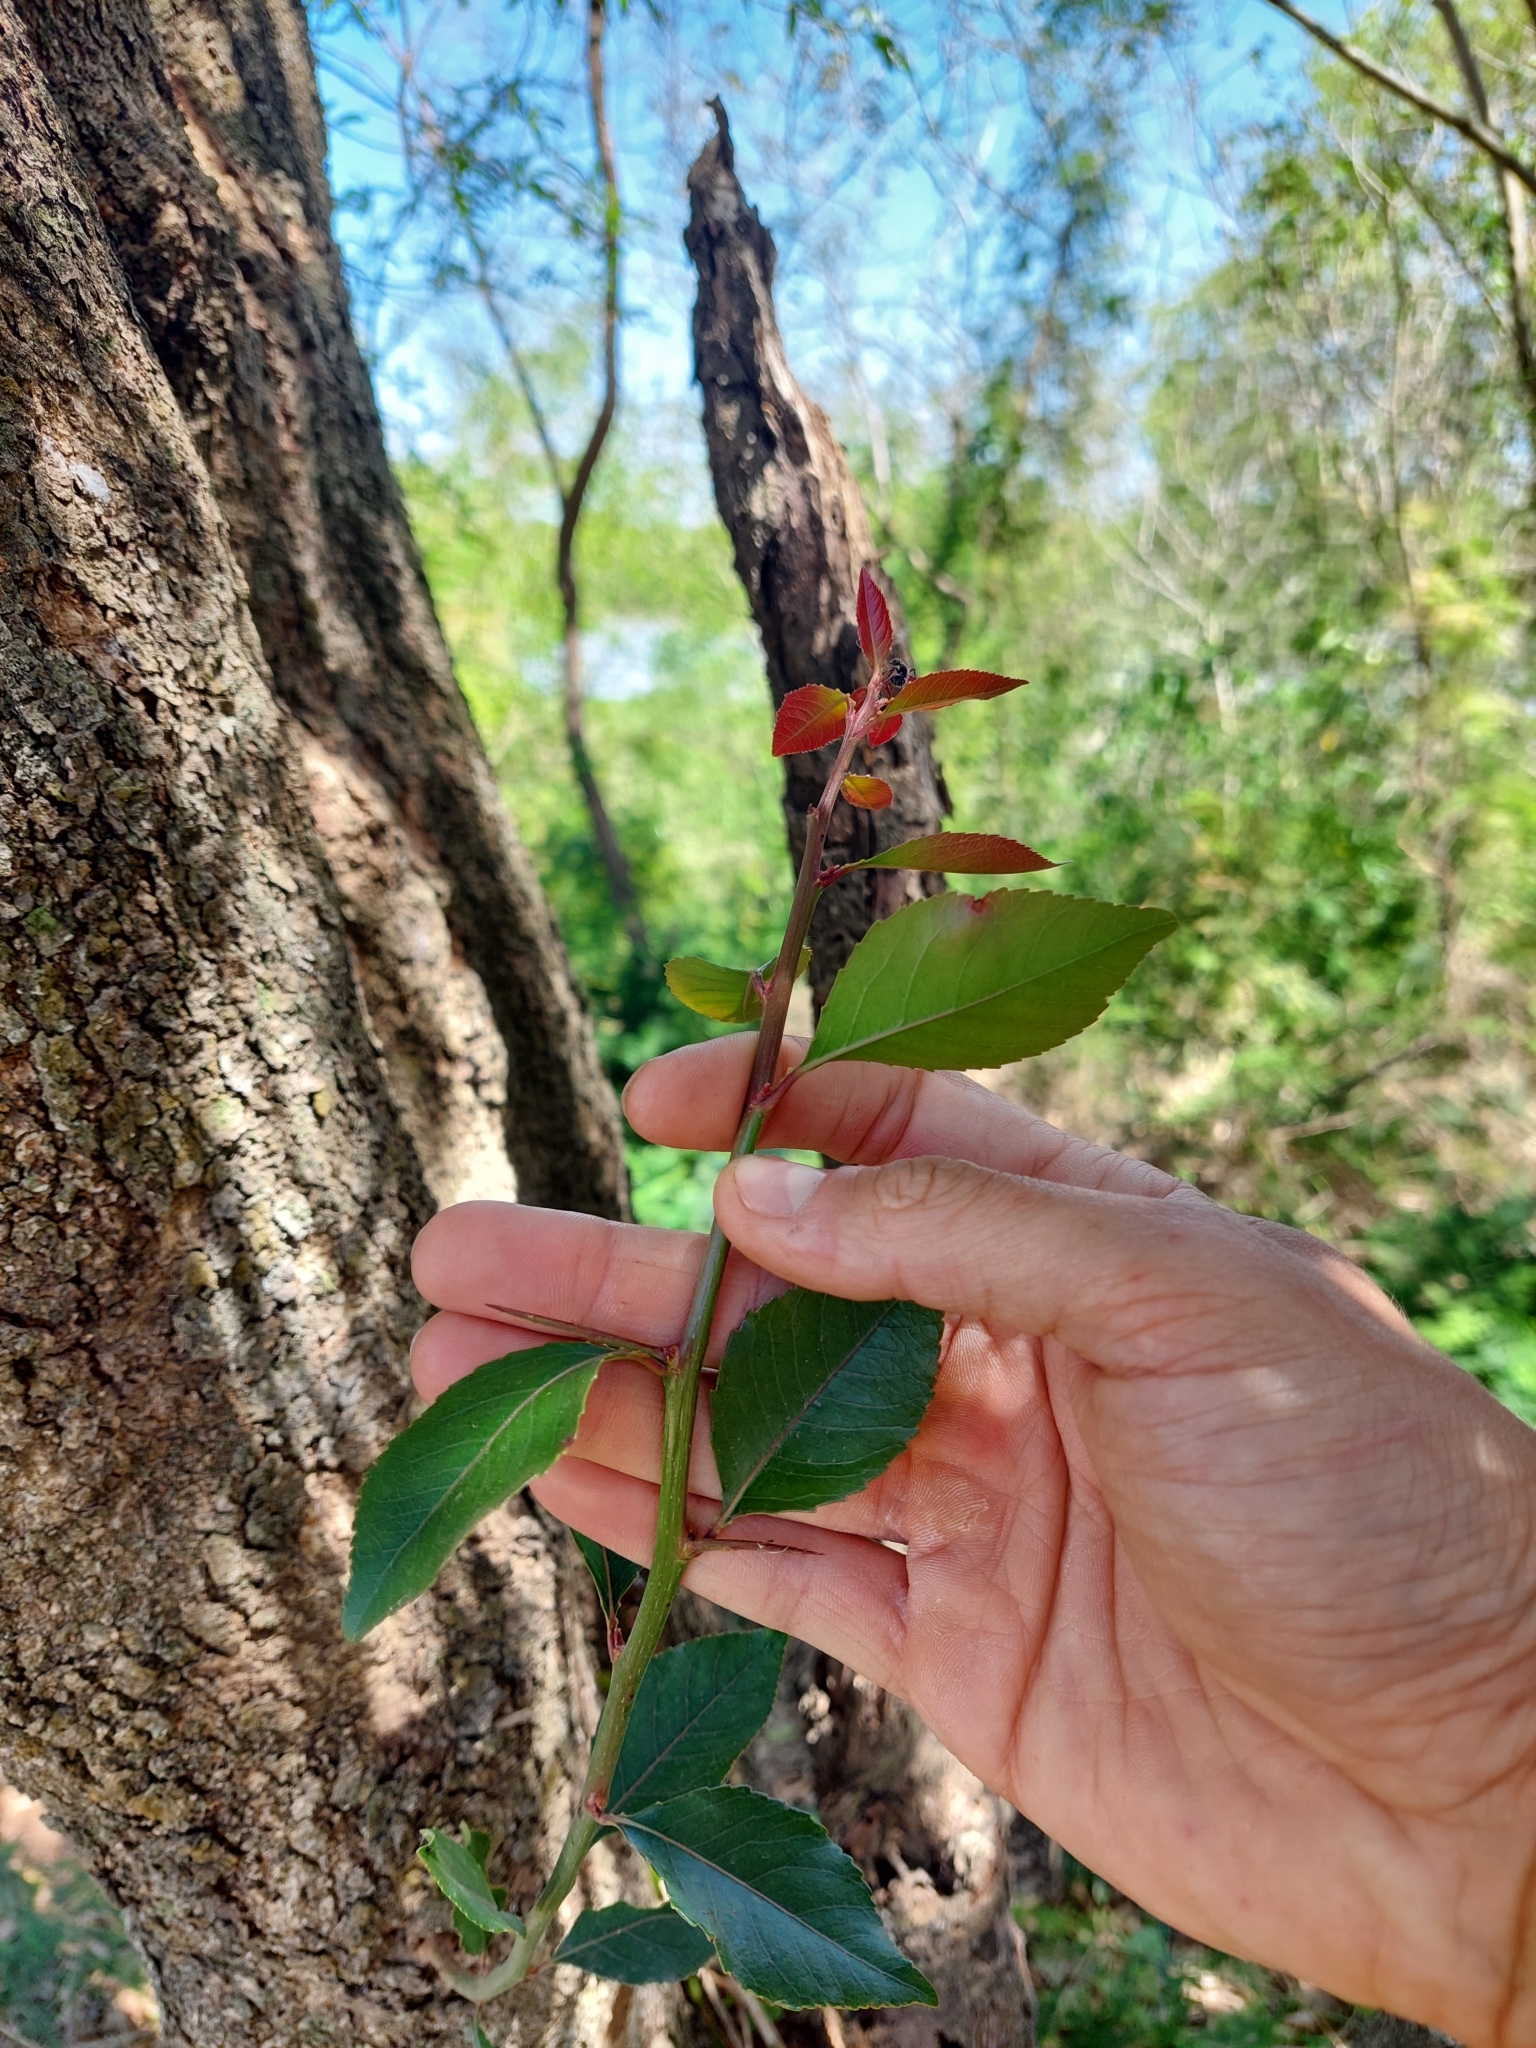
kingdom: Plantae
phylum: Tracheophyta
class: Magnoliopsida
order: Malpighiales
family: Salicaceae
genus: Xylosma
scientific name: Xylosma venosa
